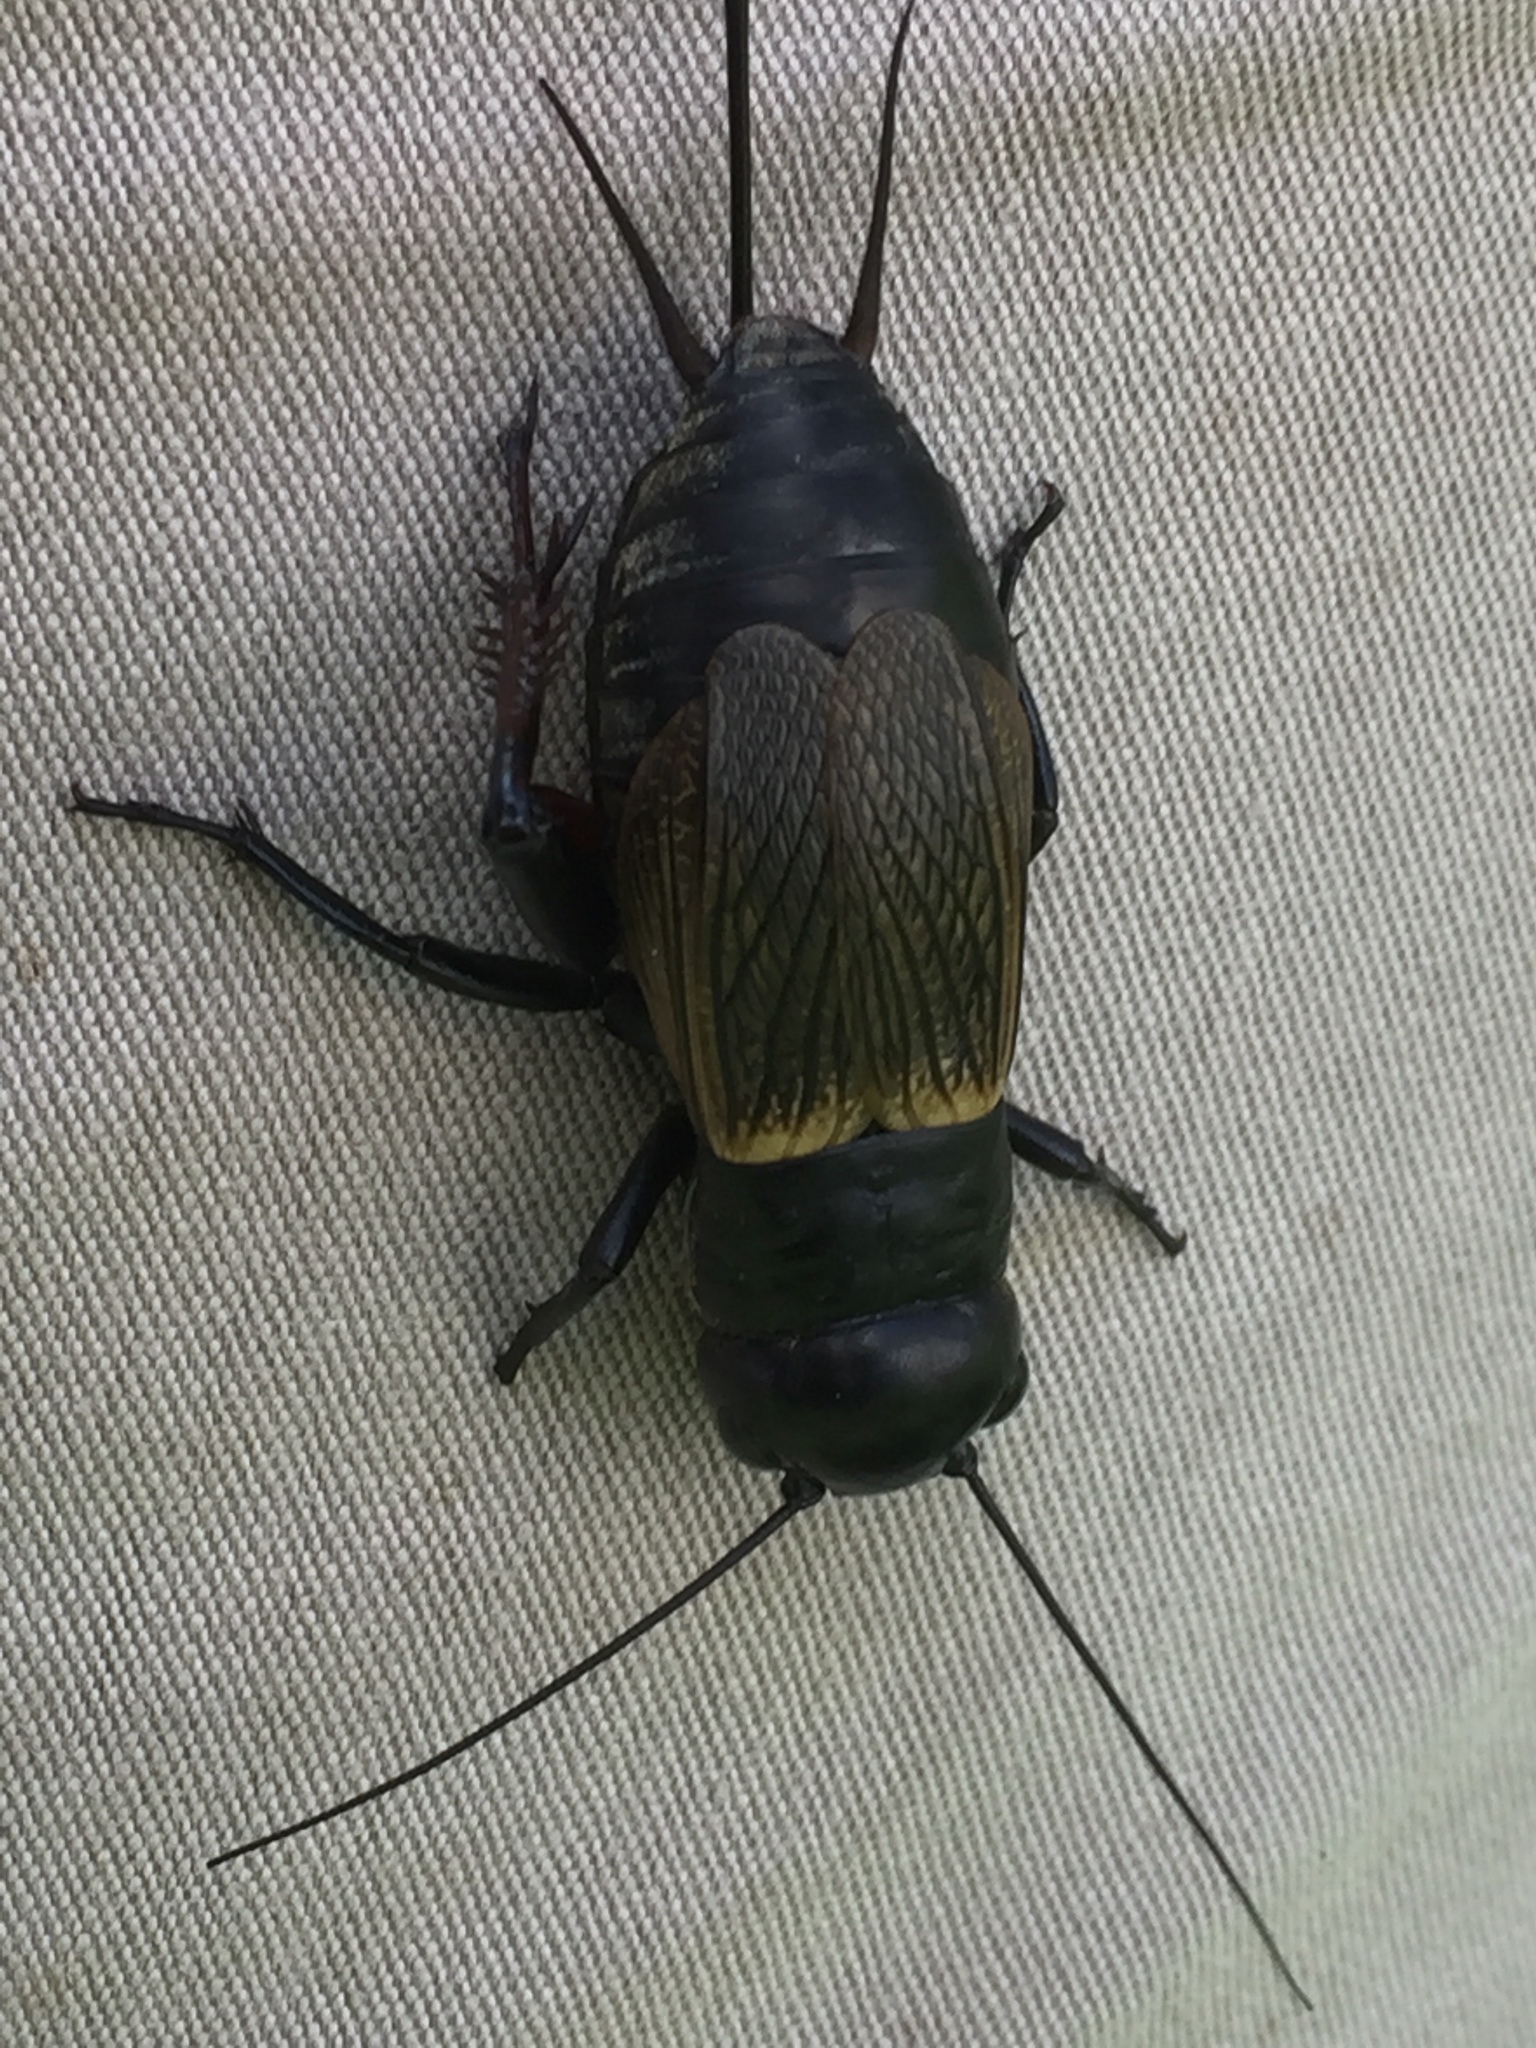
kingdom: Animalia
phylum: Arthropoda
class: Insecta
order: Orthoptera
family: Gryllidae
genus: Gryllus
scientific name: Gryllus campestris
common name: Field cricket
